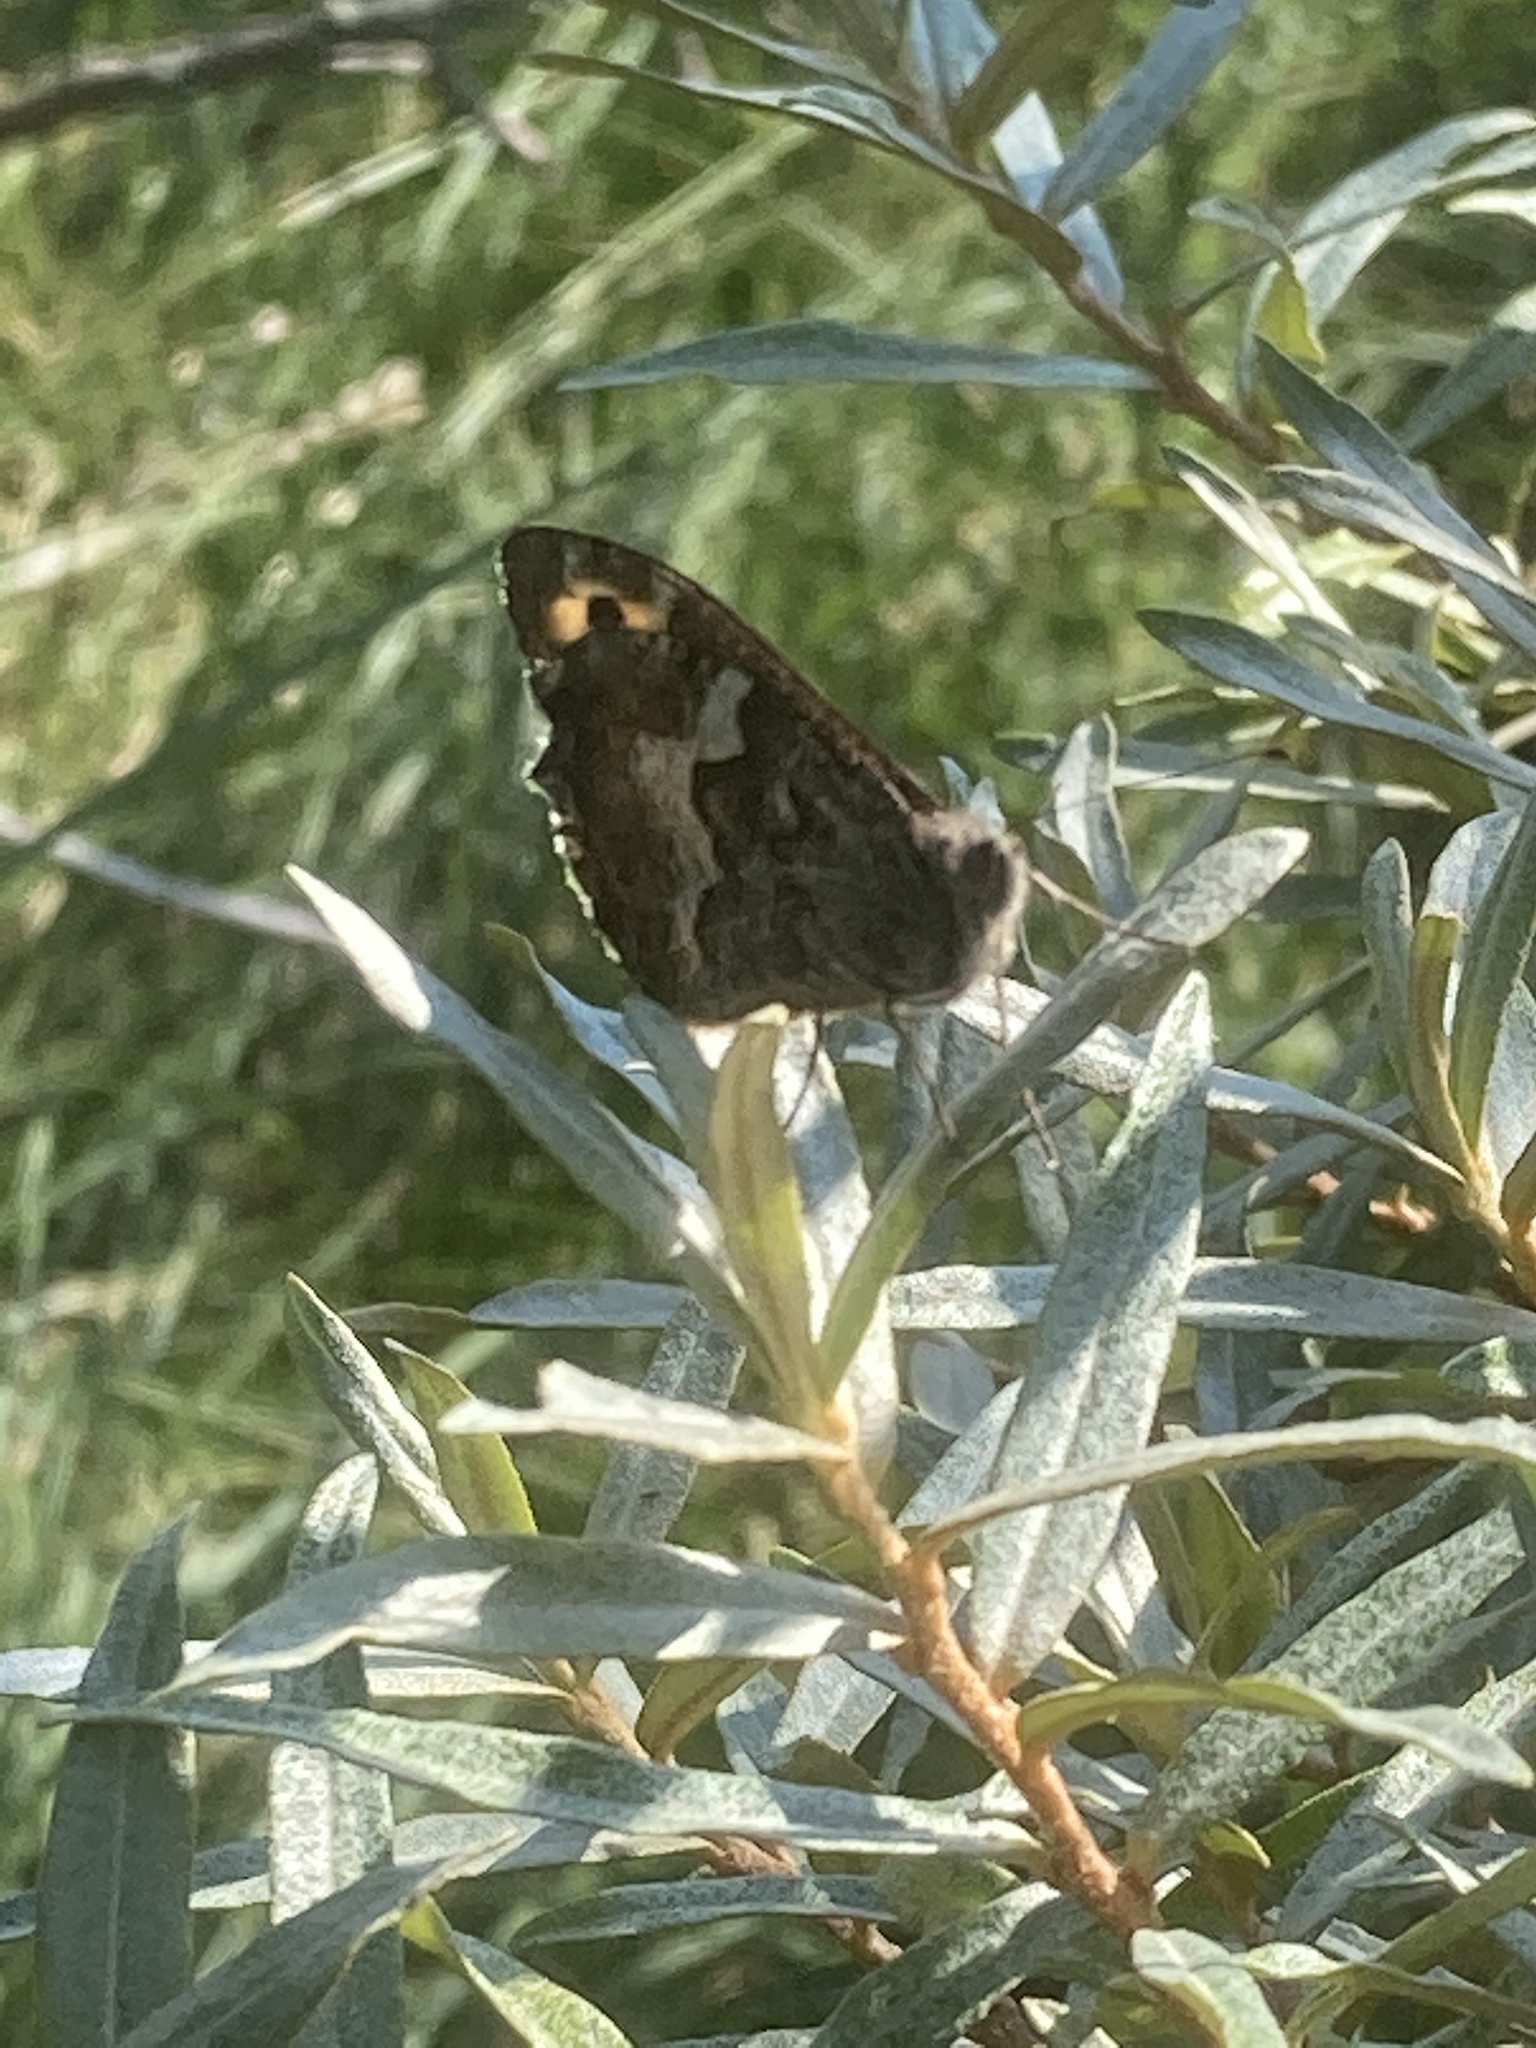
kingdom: Animalia
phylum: Arthropoda
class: Insecta
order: Lepidoptera
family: Nymphalidae
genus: Hipparchia
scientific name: Hipparchia semele
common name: Grayling
